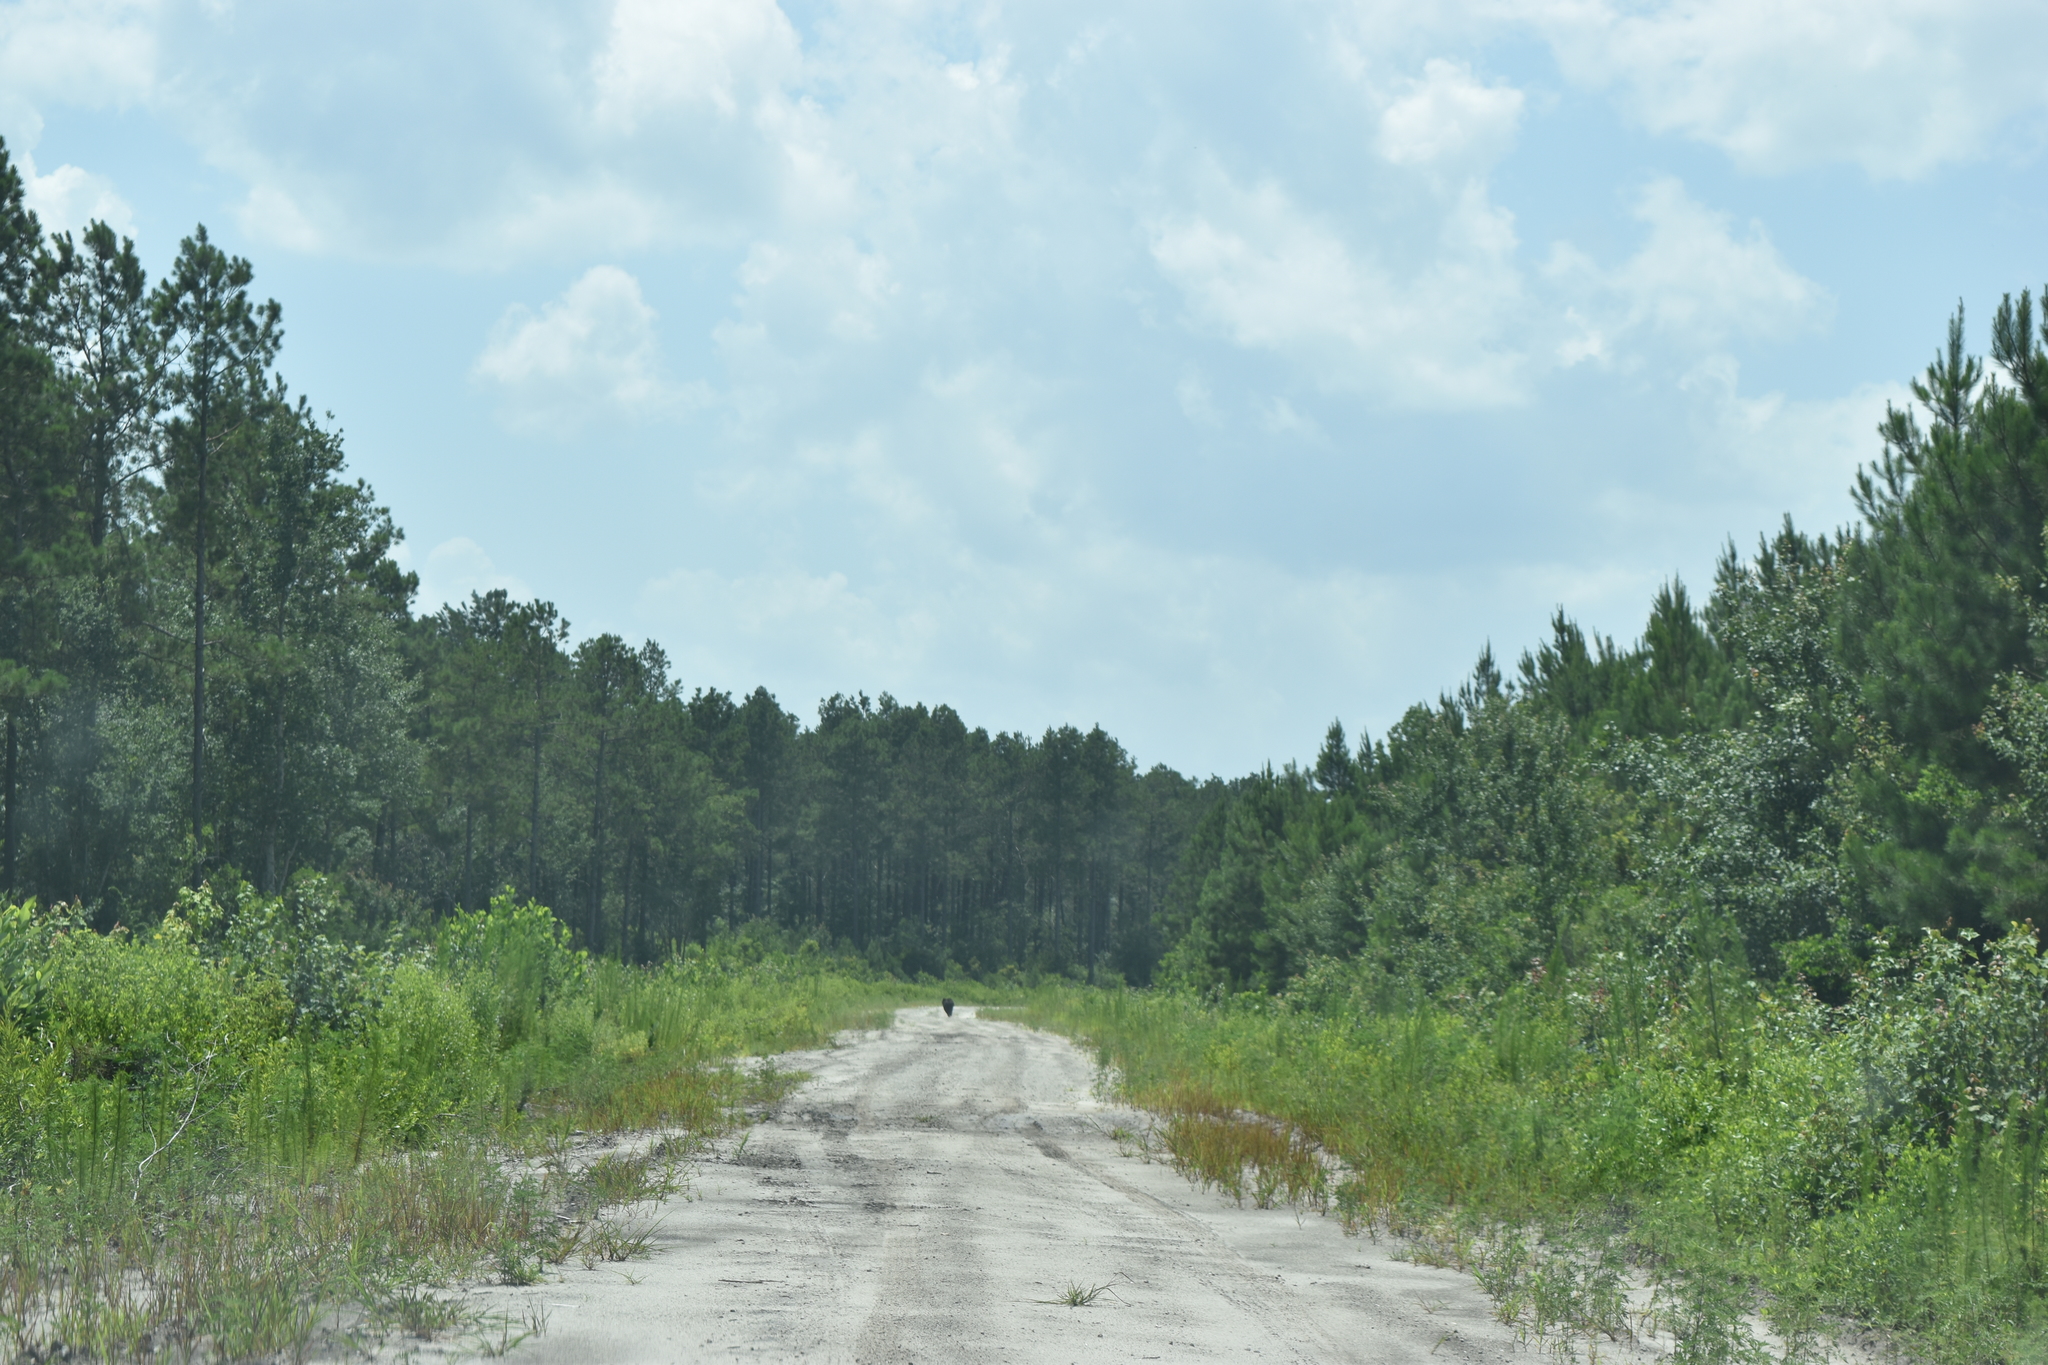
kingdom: Animalia
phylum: Chordata
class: Mammalia
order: Carnivora
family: Ursidae
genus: Ursus
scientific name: Ursus americanus
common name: American black bear
